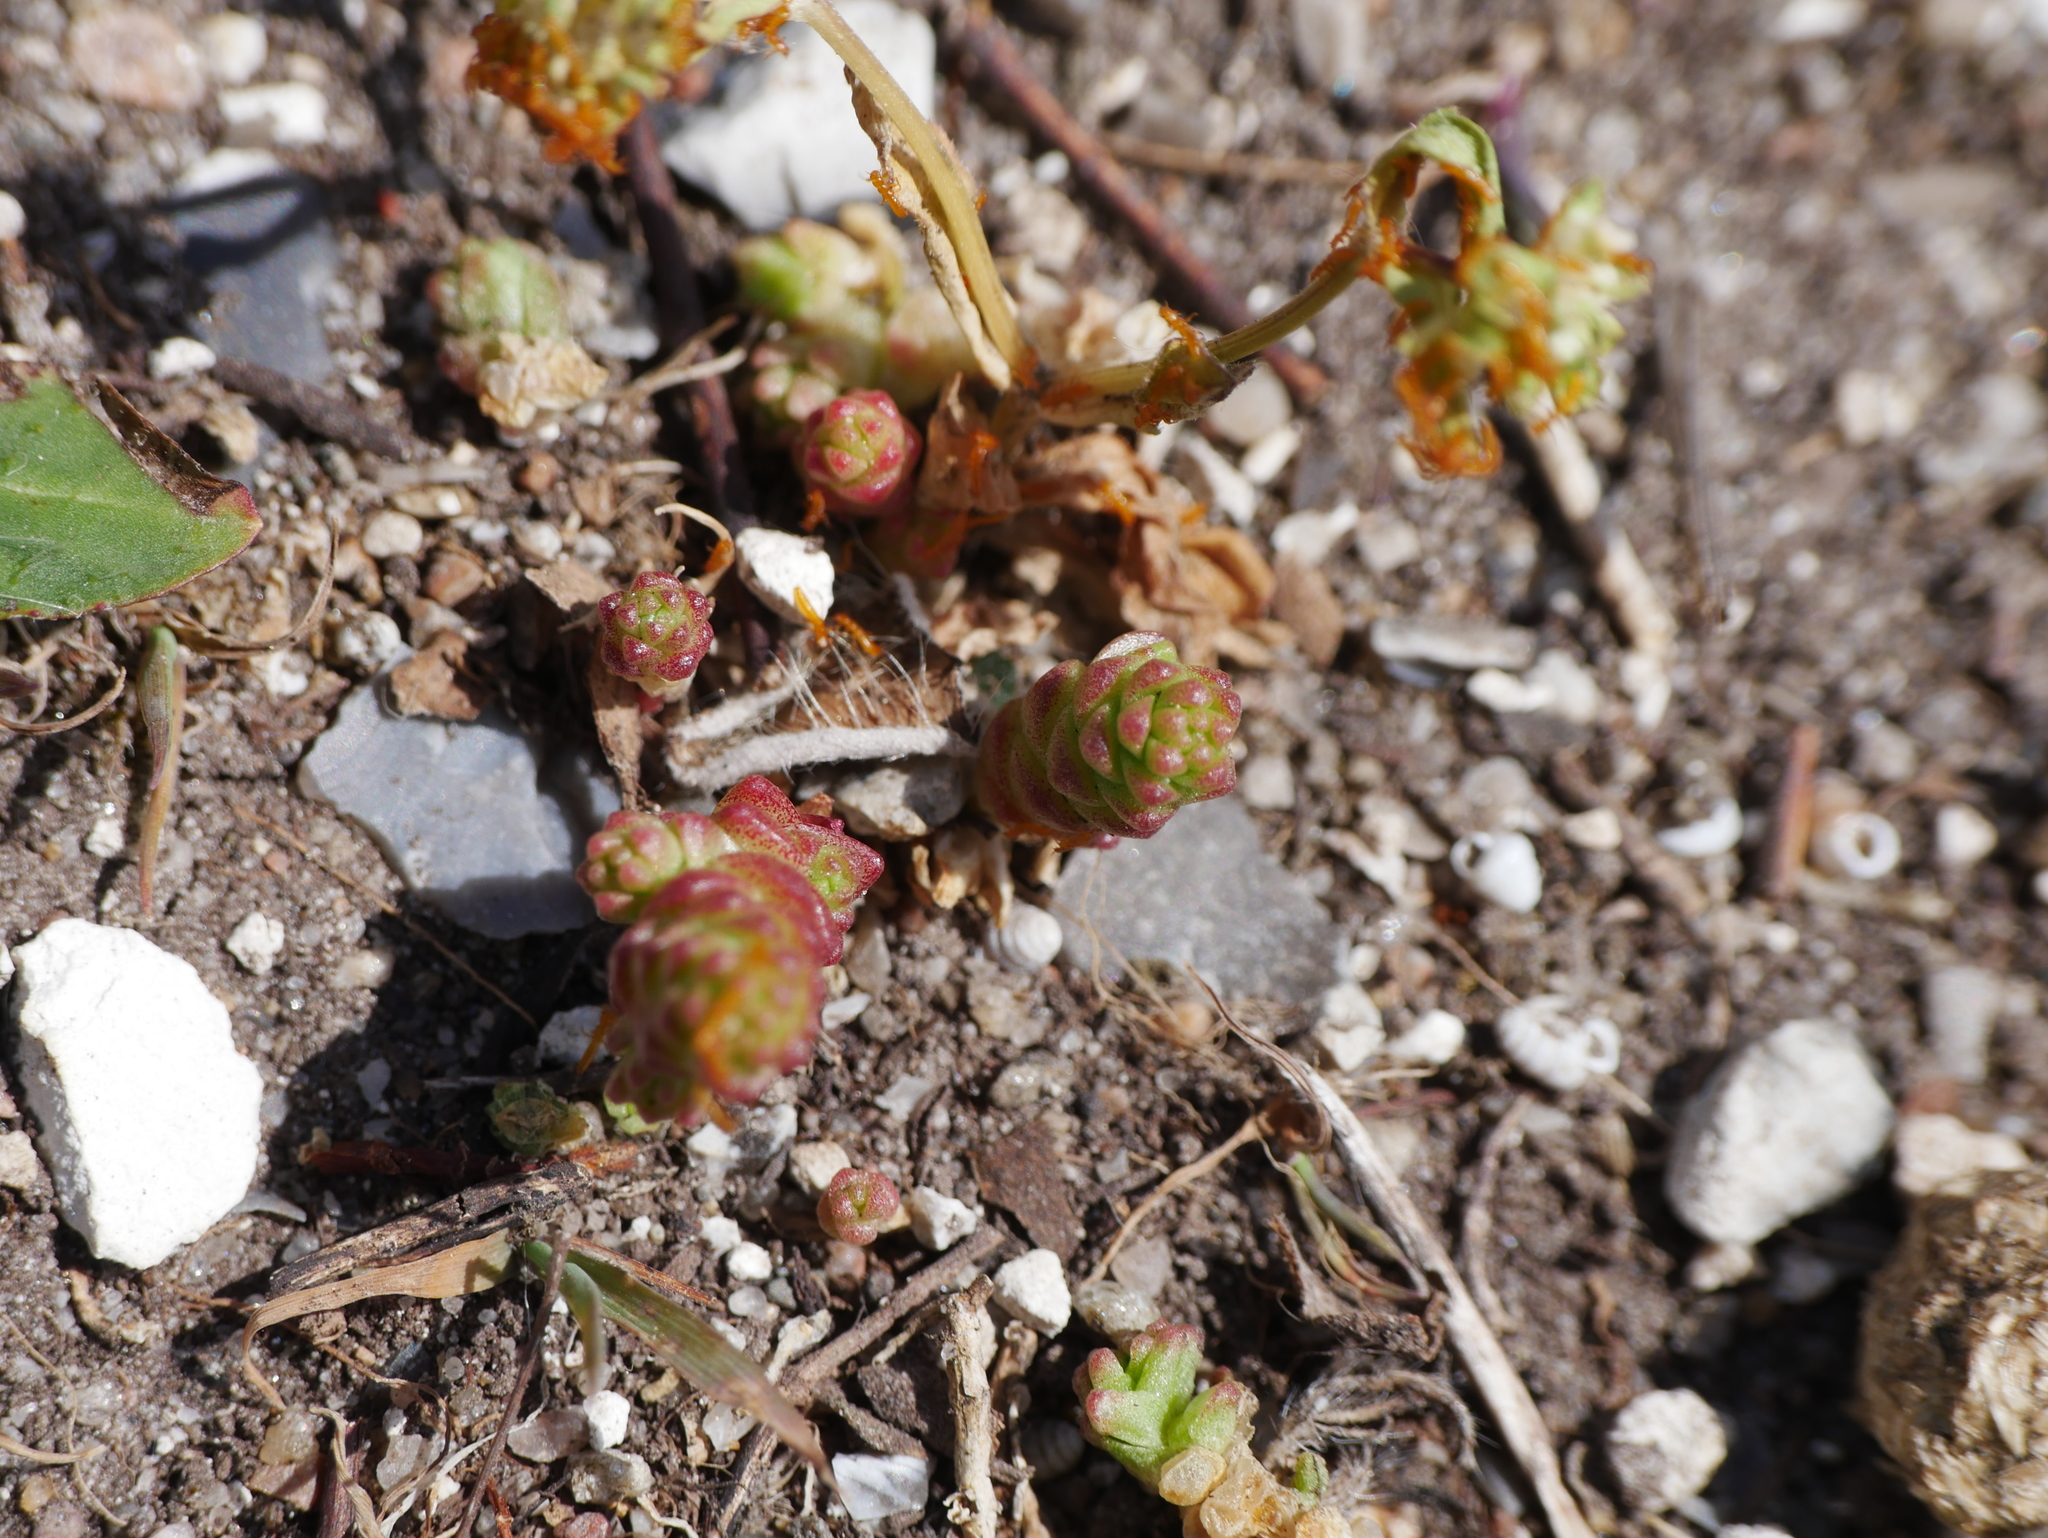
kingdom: Plantae
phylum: Tracheophyta
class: Magnoliopsida
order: Saxifragales
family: Crassulaceae
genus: Sedum
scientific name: Sedum acre
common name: Biting stonecrop
